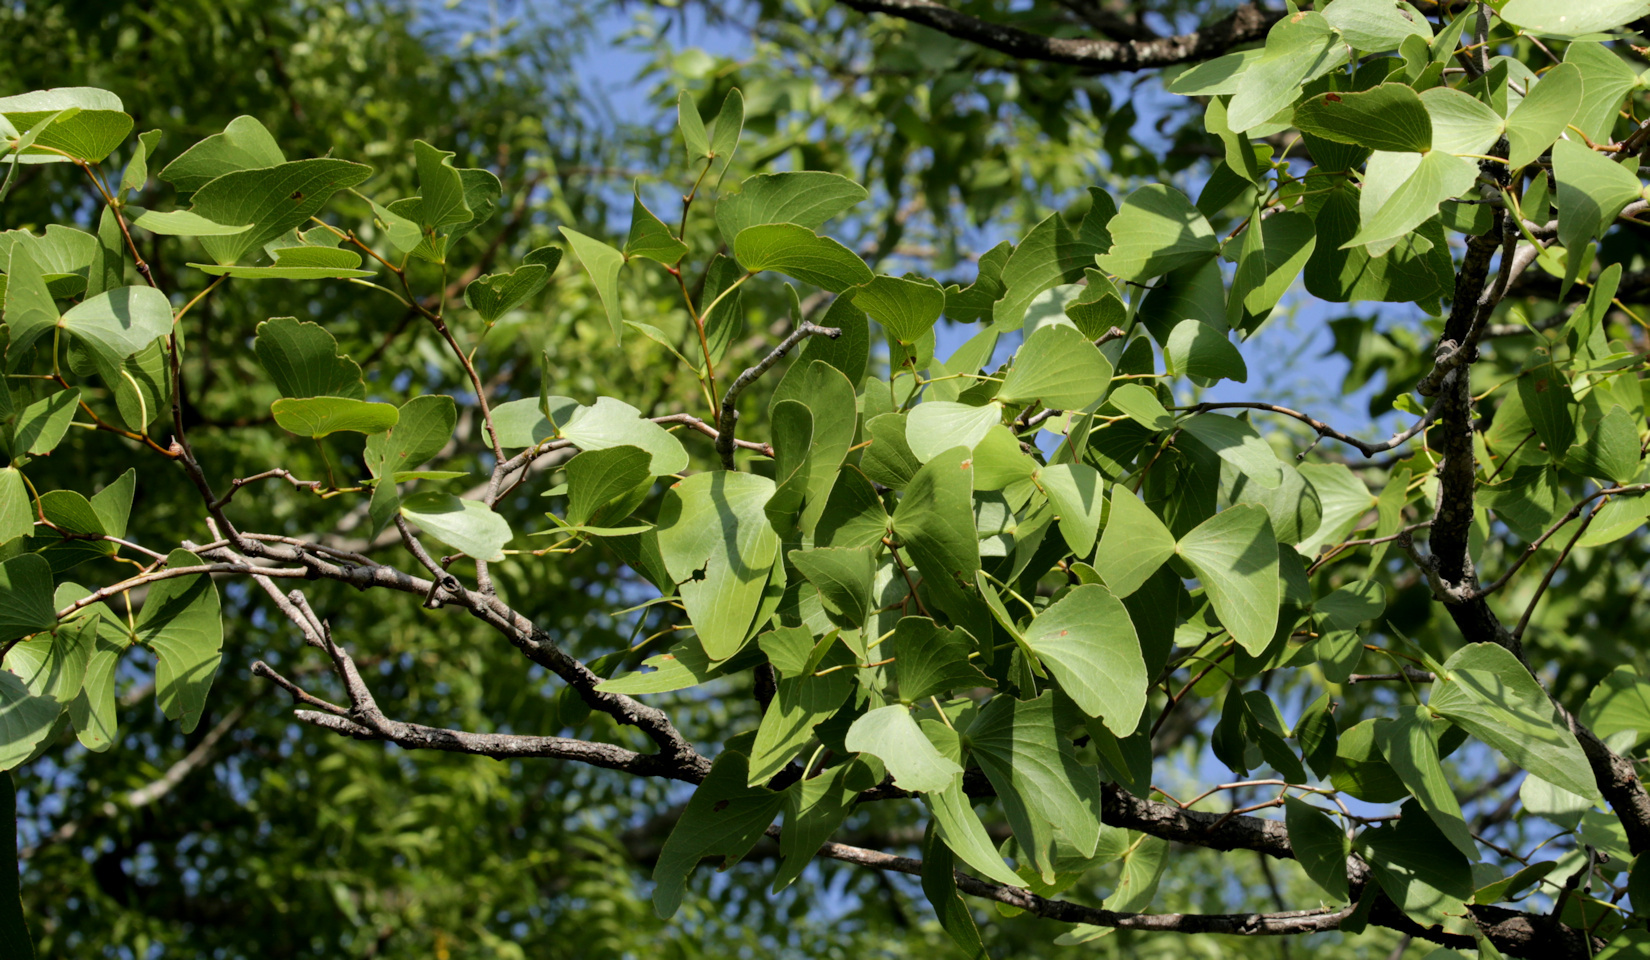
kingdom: Plantae
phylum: Tracheophyta
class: Magnoliopsida
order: Fabales
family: Fabaceae
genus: Colophospermum
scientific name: Colophospermum mopane
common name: Mopane
